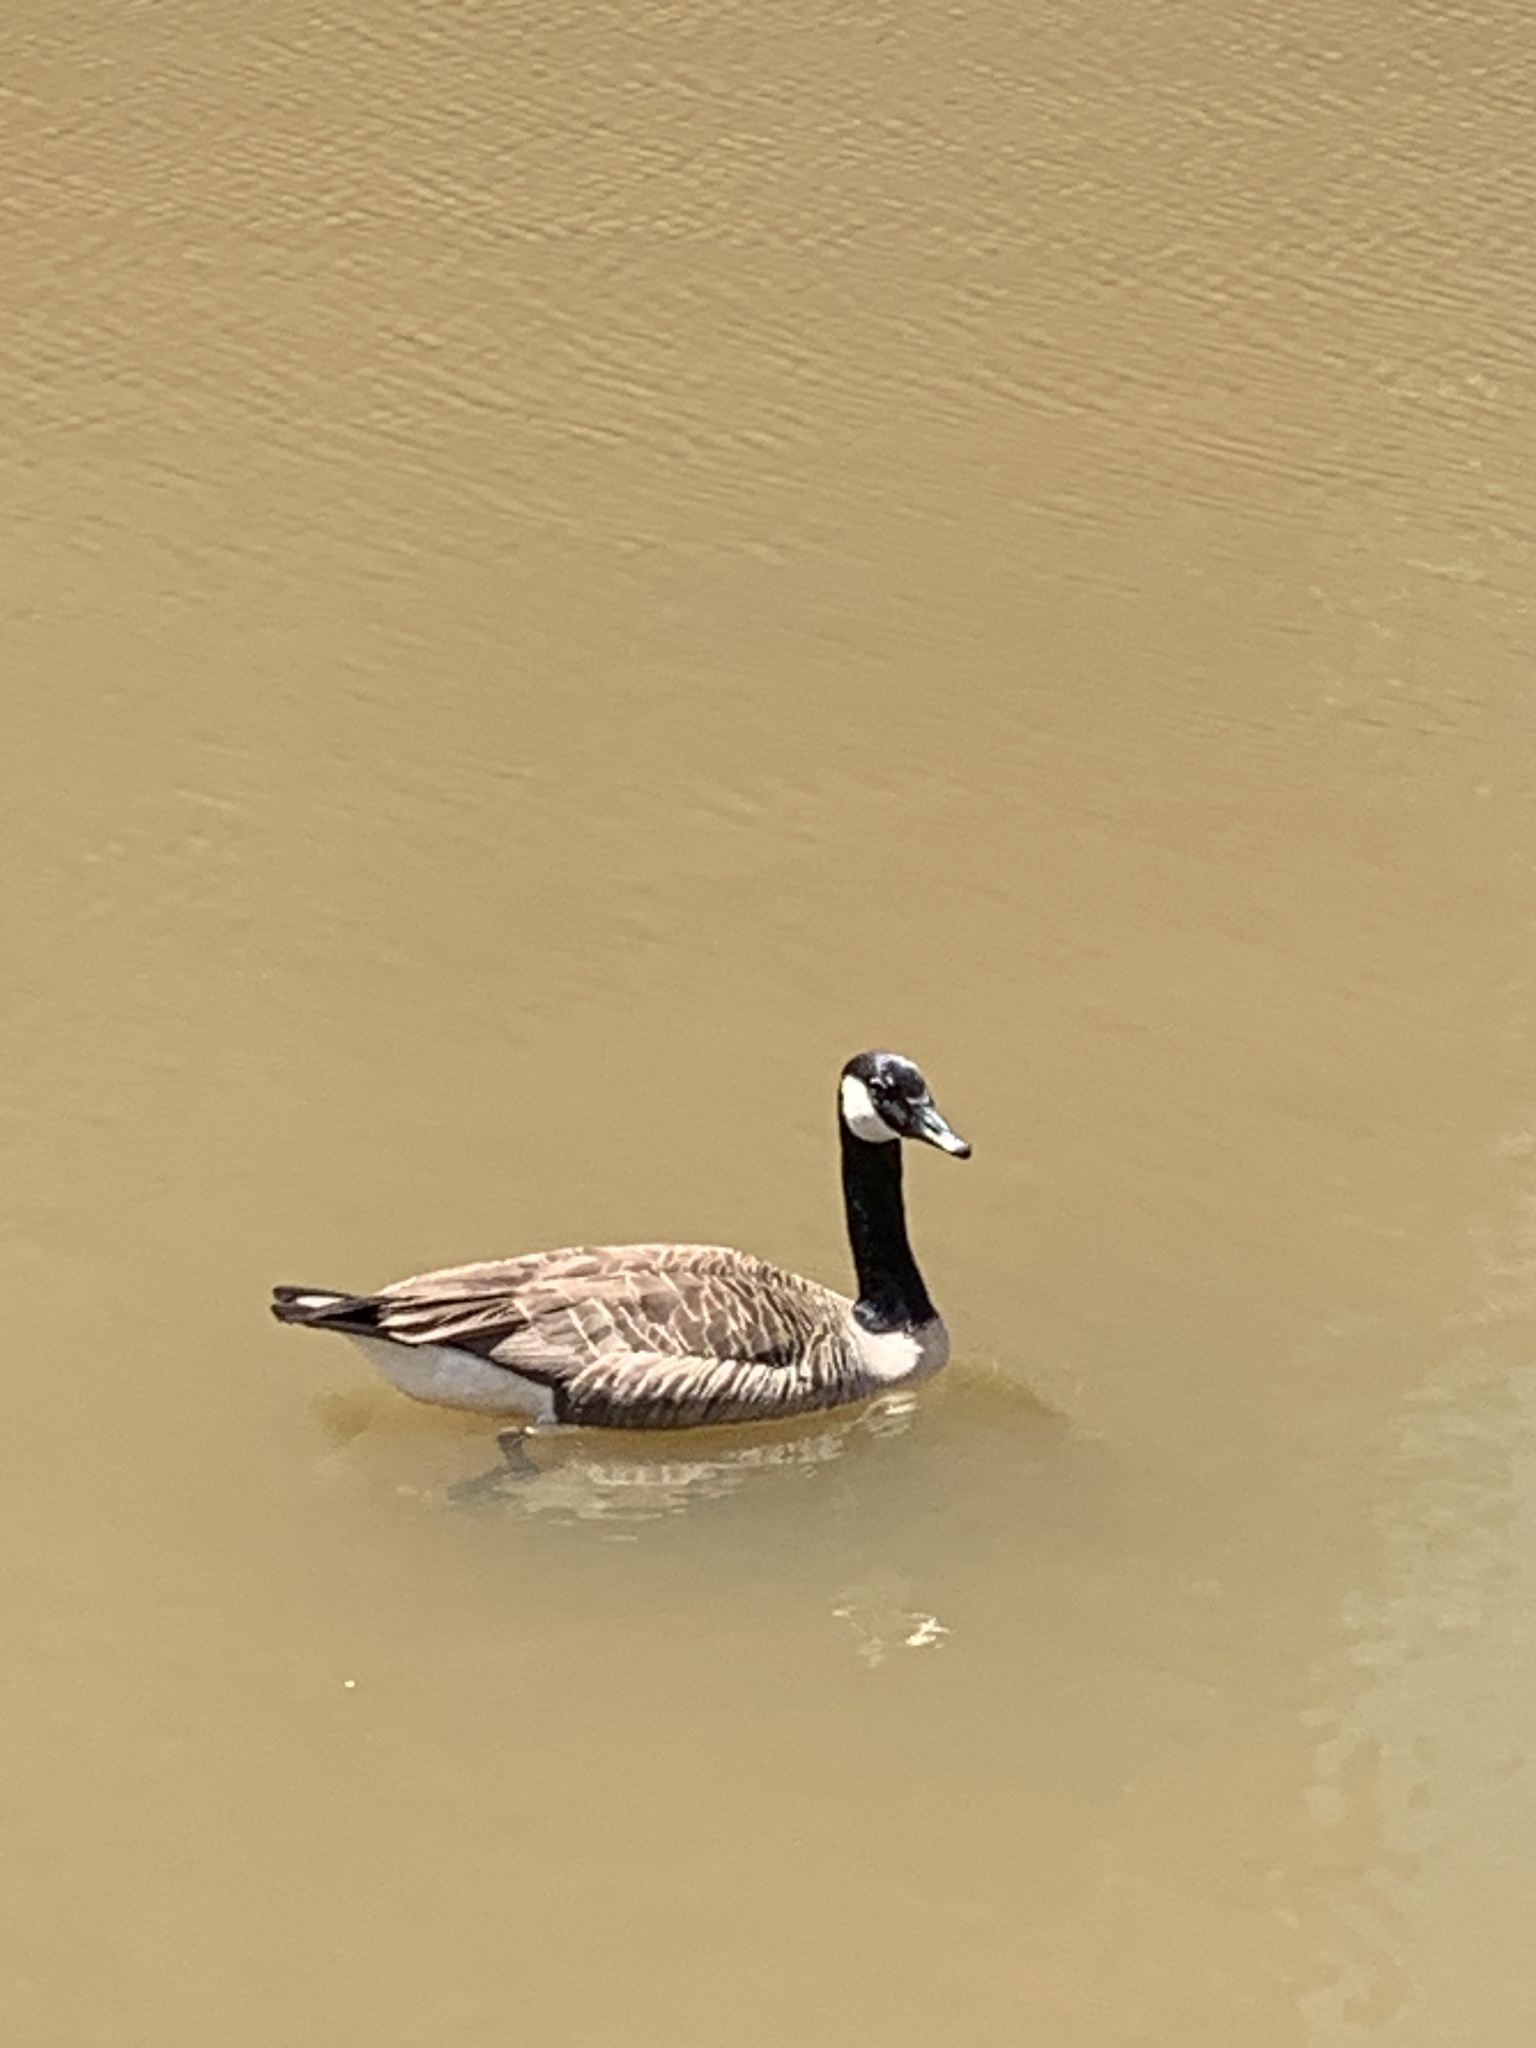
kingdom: Animalia
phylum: Chordata
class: Aves
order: Anseriformes
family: Anatidae
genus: Branta
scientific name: Branta canadensis
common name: Canada goose
